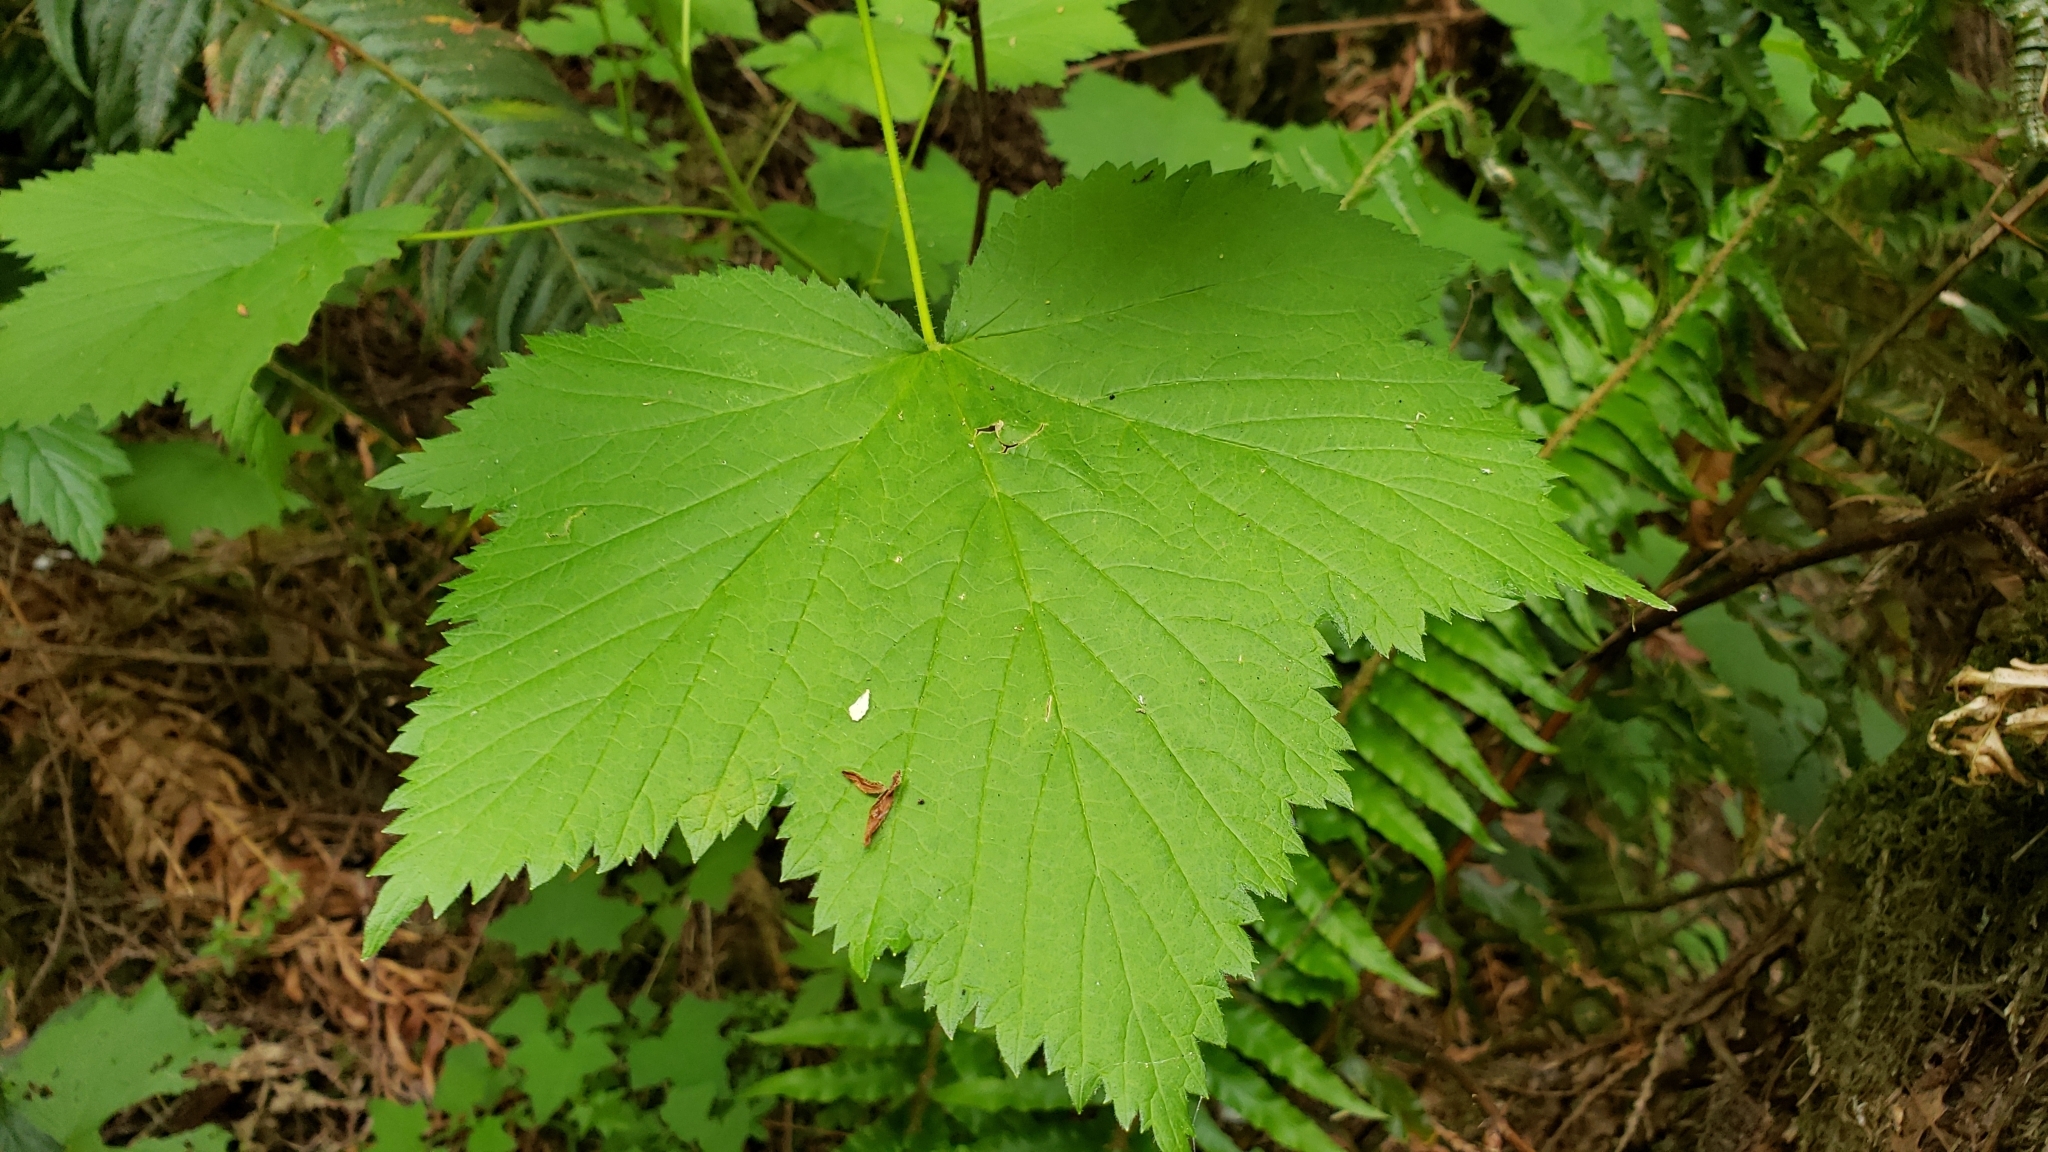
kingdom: Plantae
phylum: Tracheophyta
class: Magnoliopsida
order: Rosales
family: Rosaceae
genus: Rubus
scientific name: Rubus parviflorus
